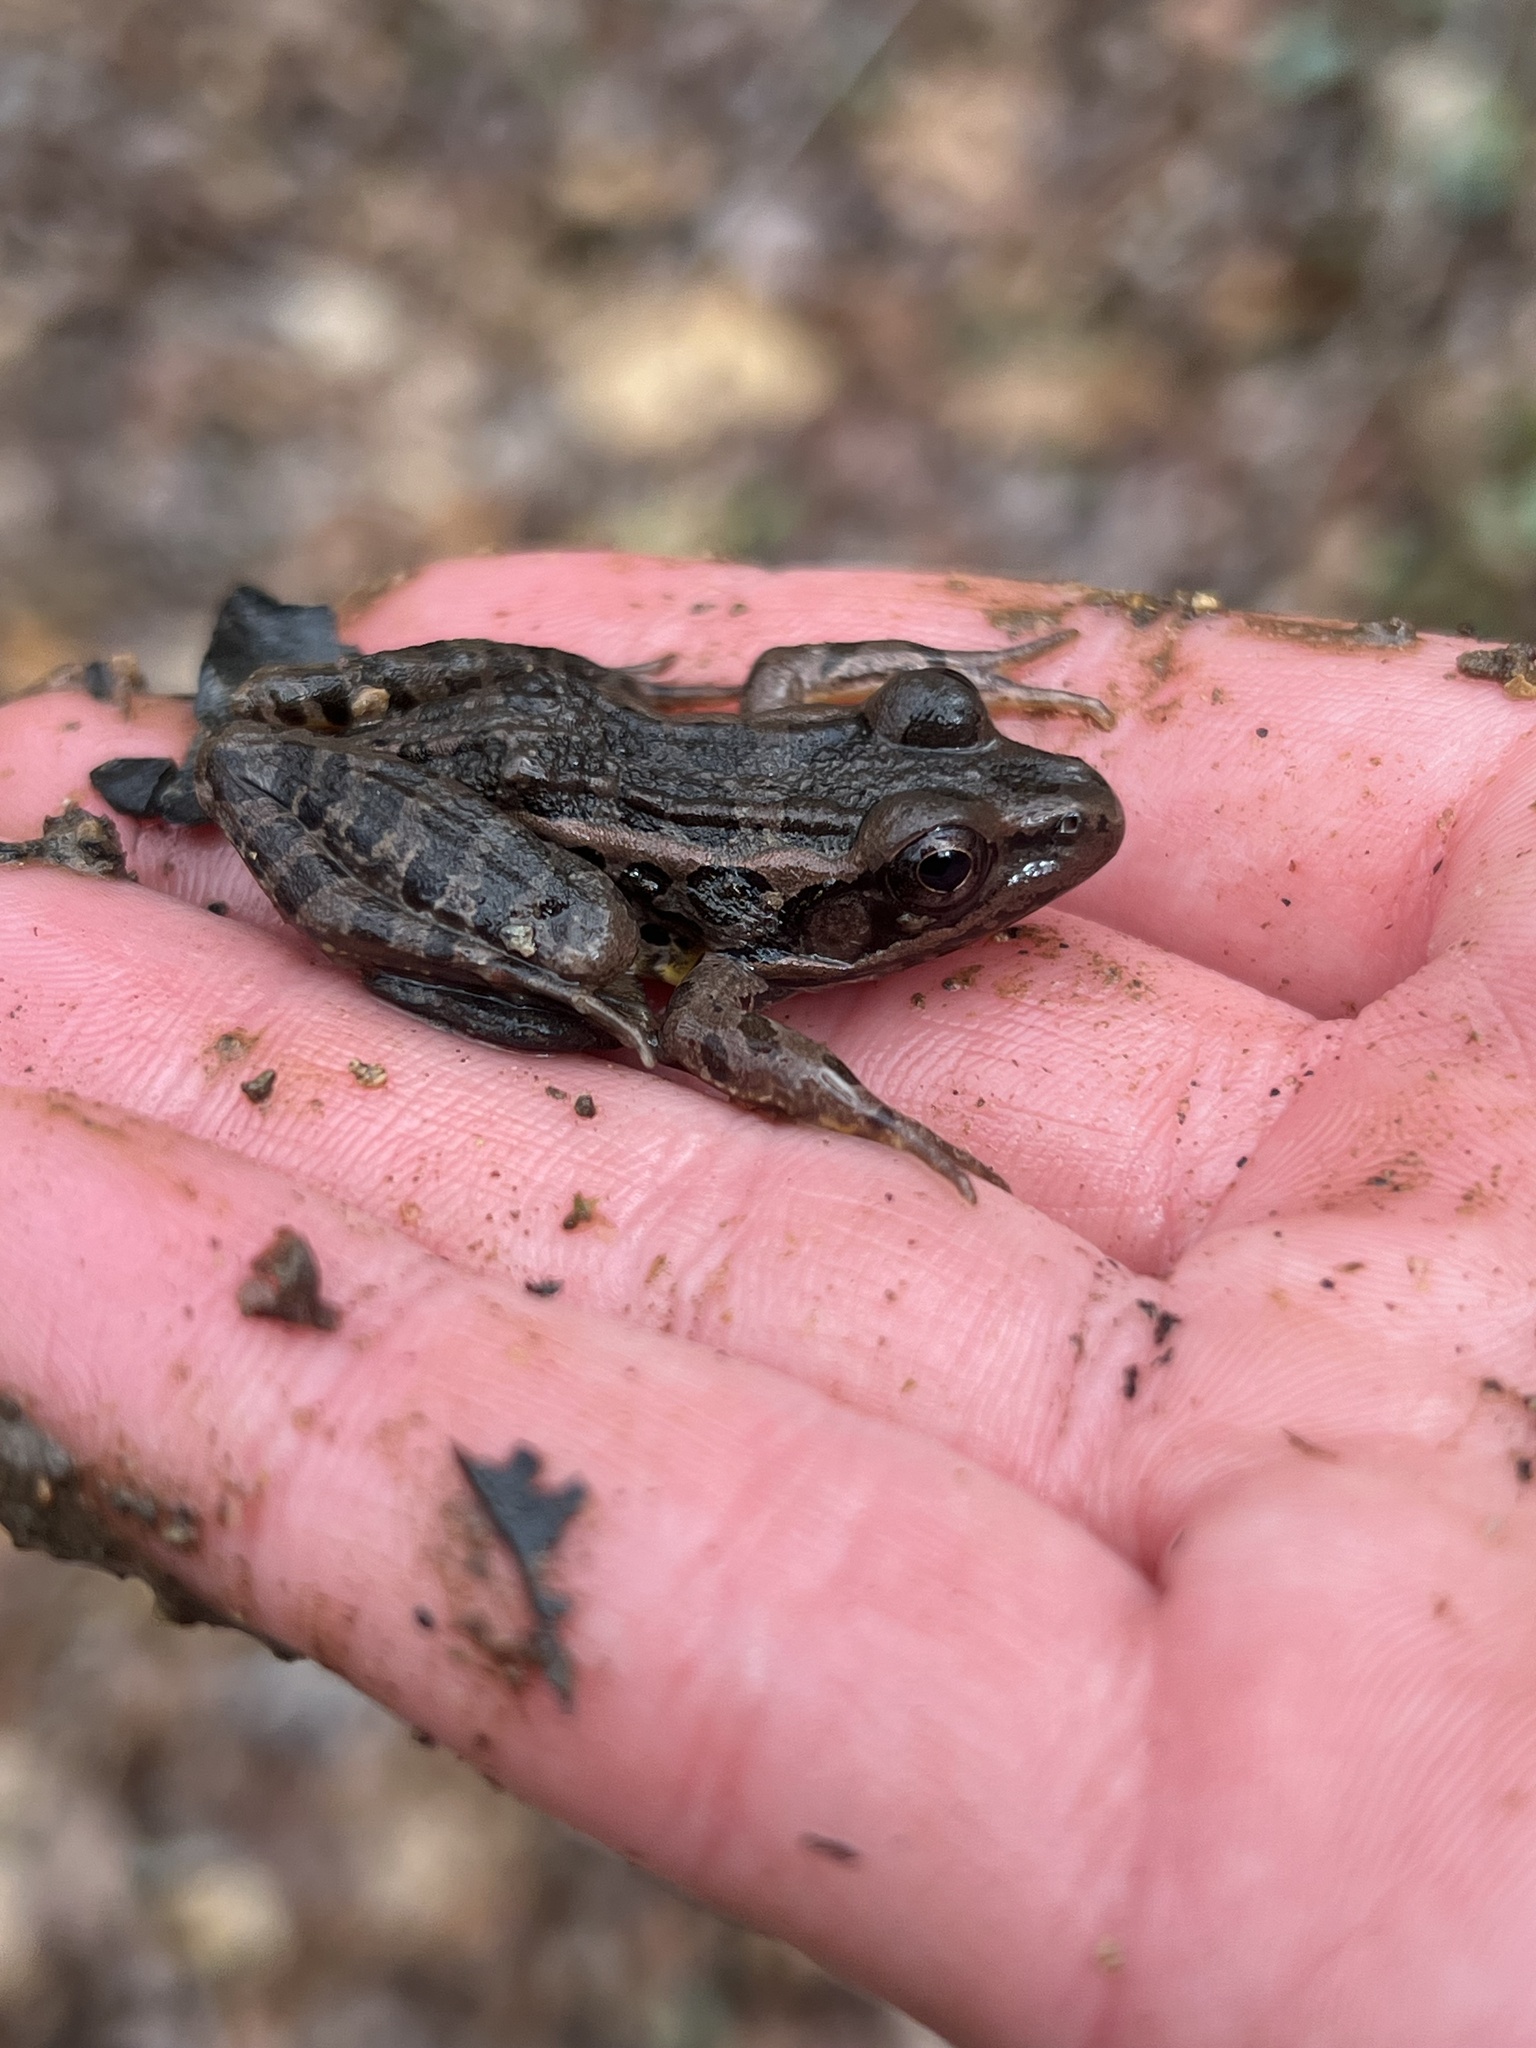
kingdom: Animalia
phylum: Chordata
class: Amphibia
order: Anura
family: Ranidae
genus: Lithobates
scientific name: Lithobates palustris
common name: Pickerel frog
